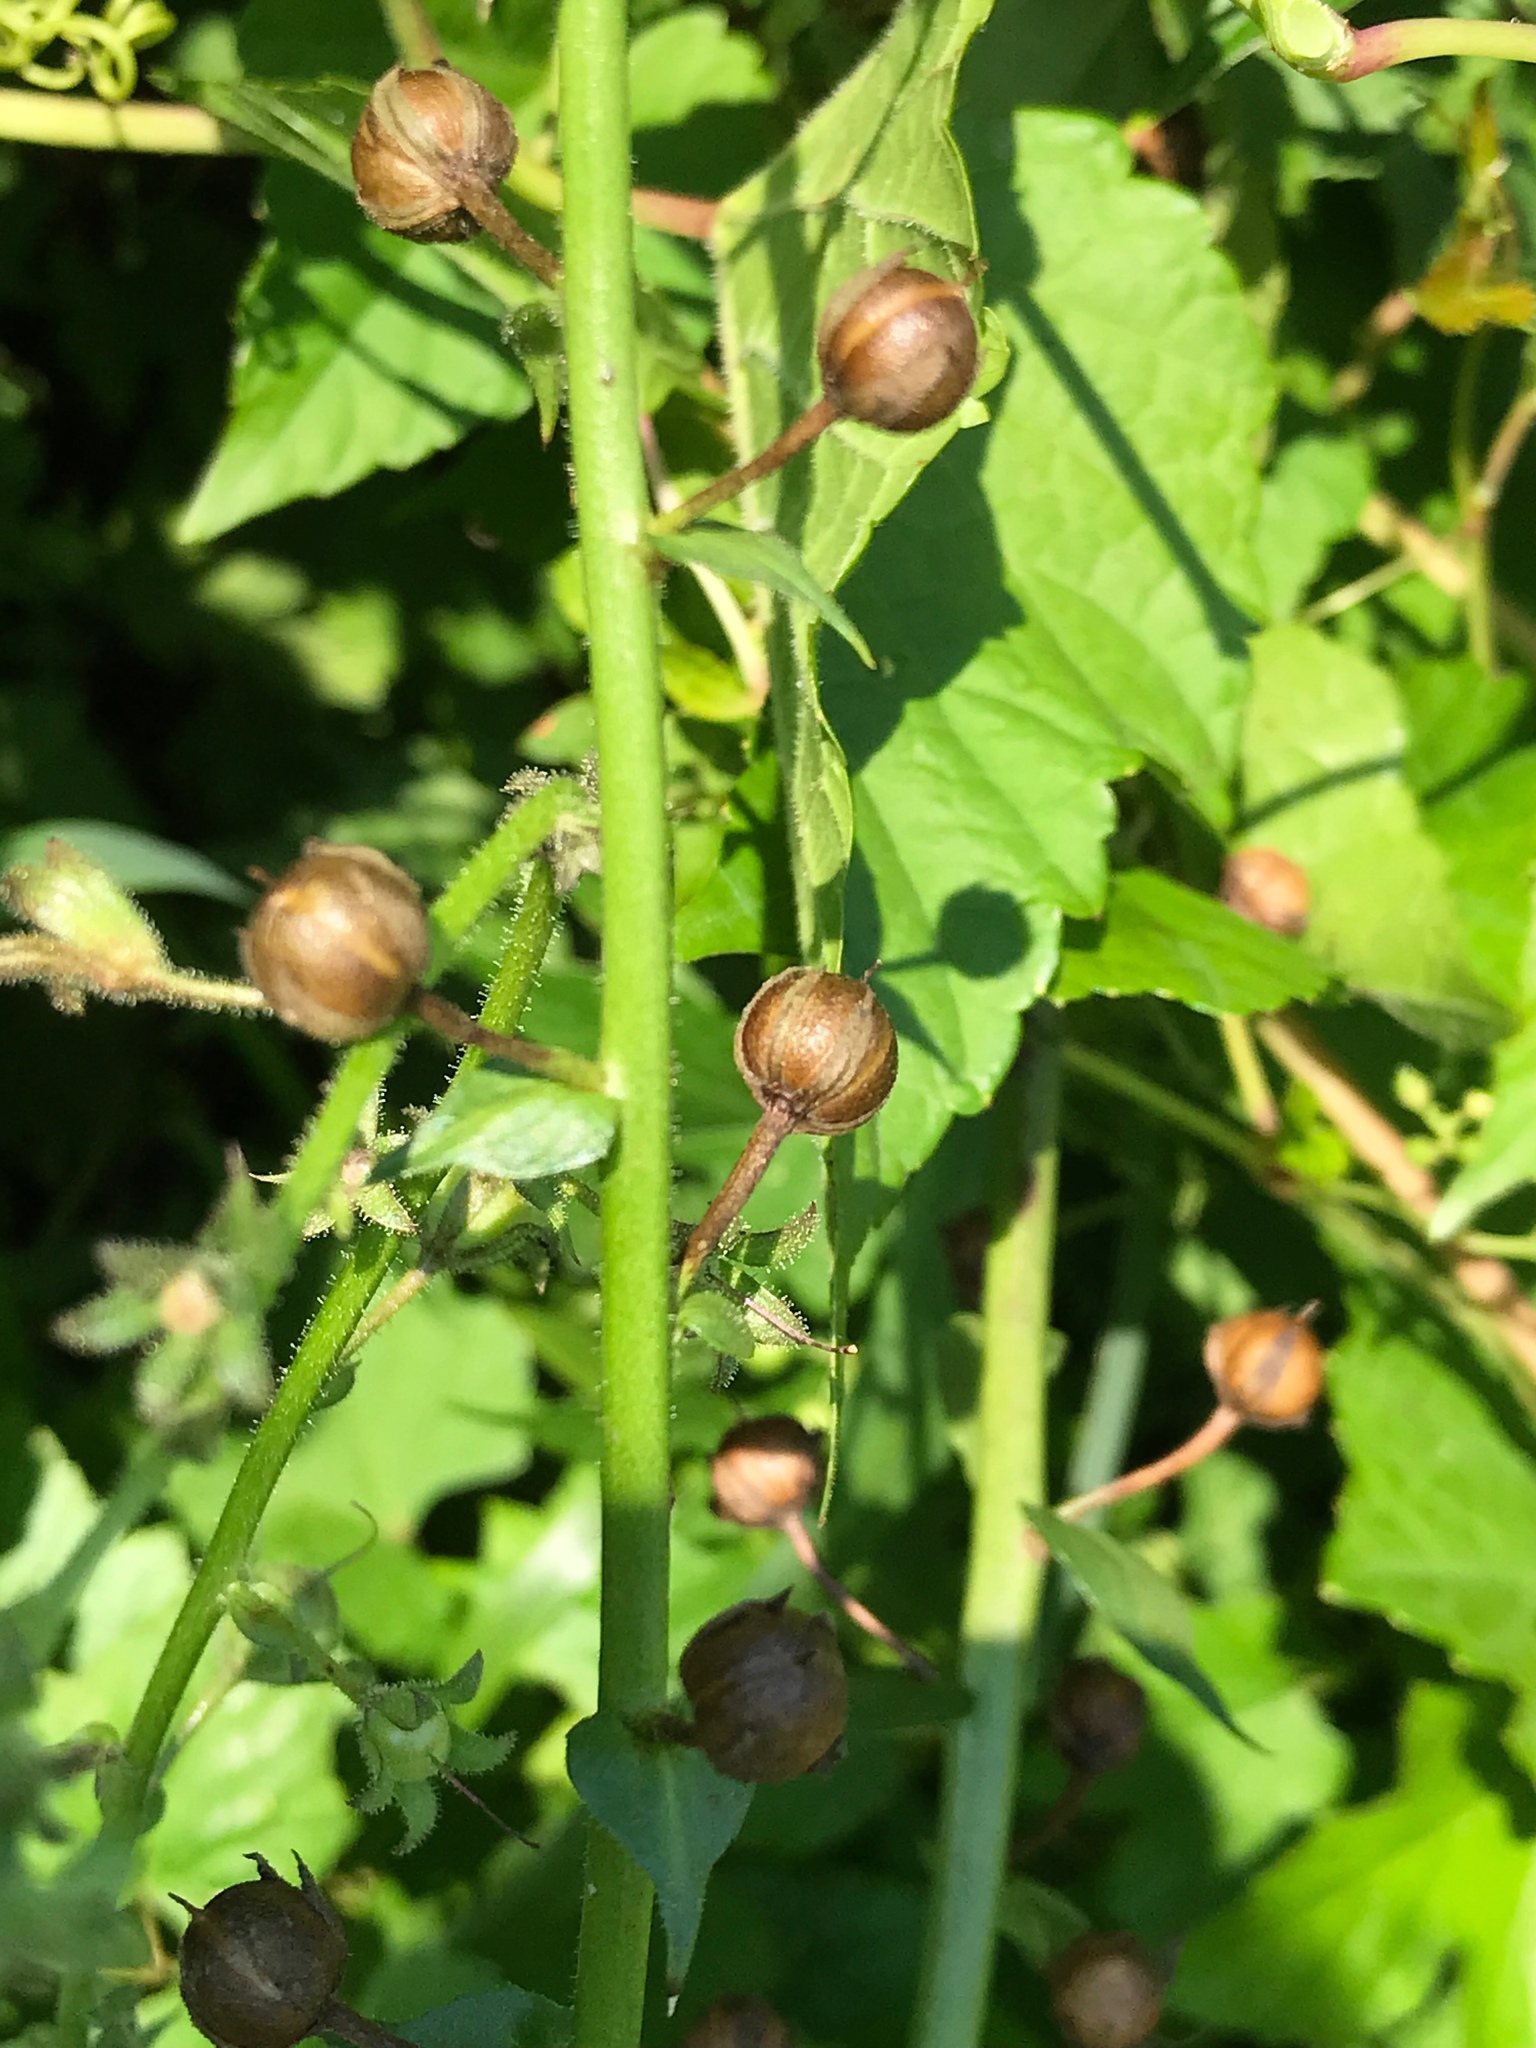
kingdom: Plantae
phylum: Tracheophyta
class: Magnoliopsida
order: Lamiales
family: Scrophulariaceae
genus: Verbascum
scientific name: Verbascum blattaria
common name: Moth mullein
